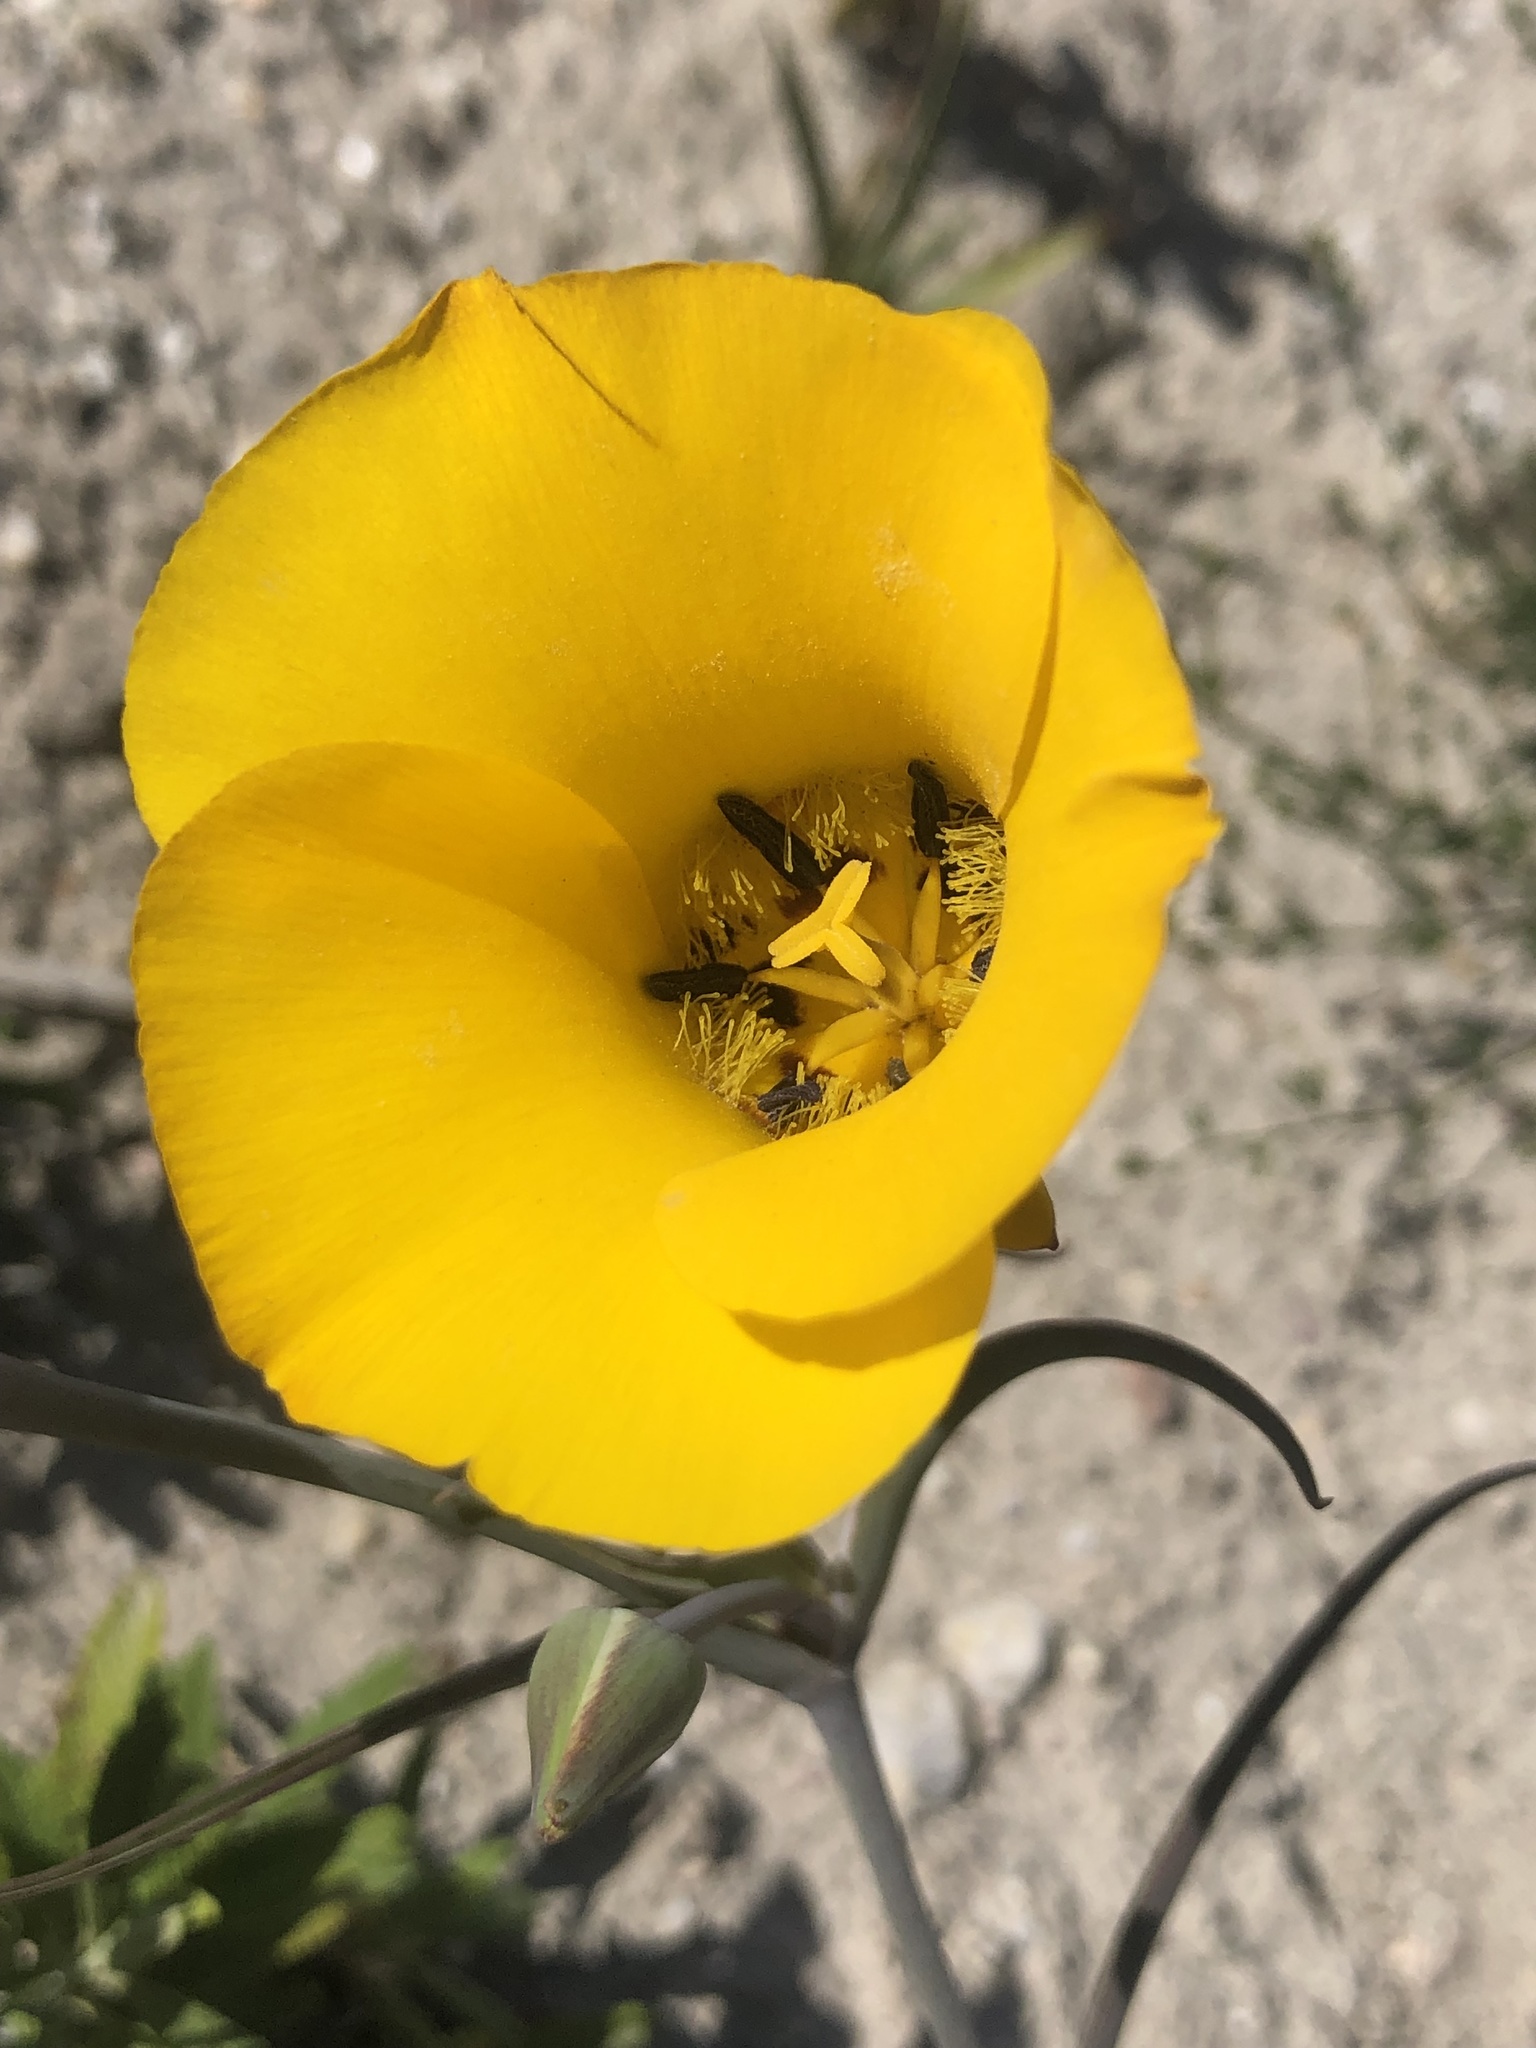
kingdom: Plantae
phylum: Tracheophyta
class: Liliopsida
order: Liliales
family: Liliaceae
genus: Calochortus
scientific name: Calochortus clavatus
